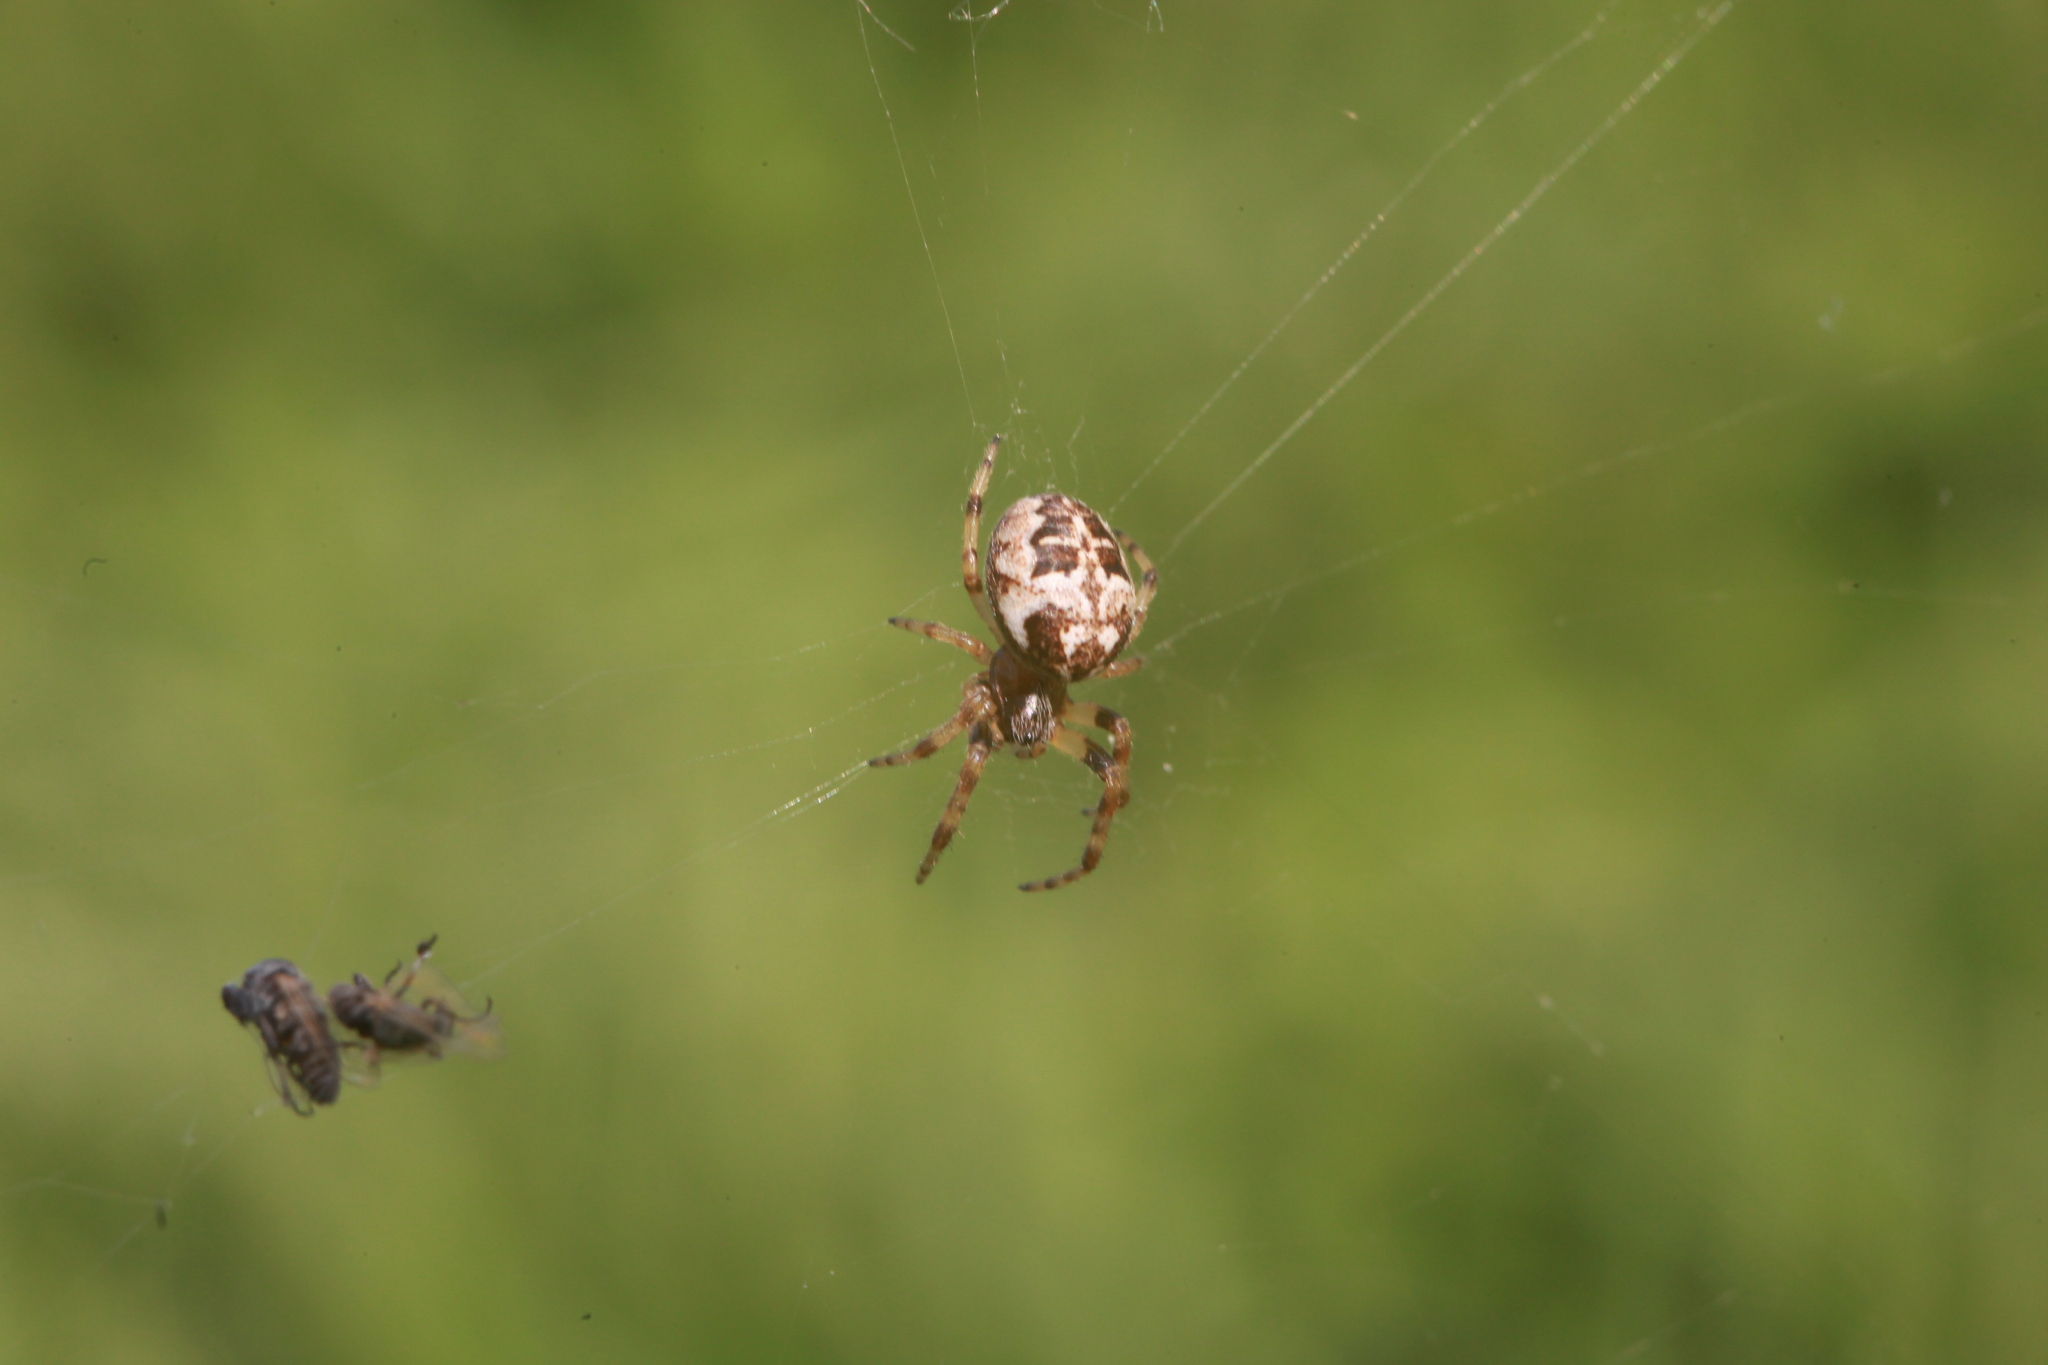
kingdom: Animalia
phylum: Arthropoda
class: Arachnida
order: Araneae
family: Araneidae
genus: Larinioides
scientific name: Larinioides
